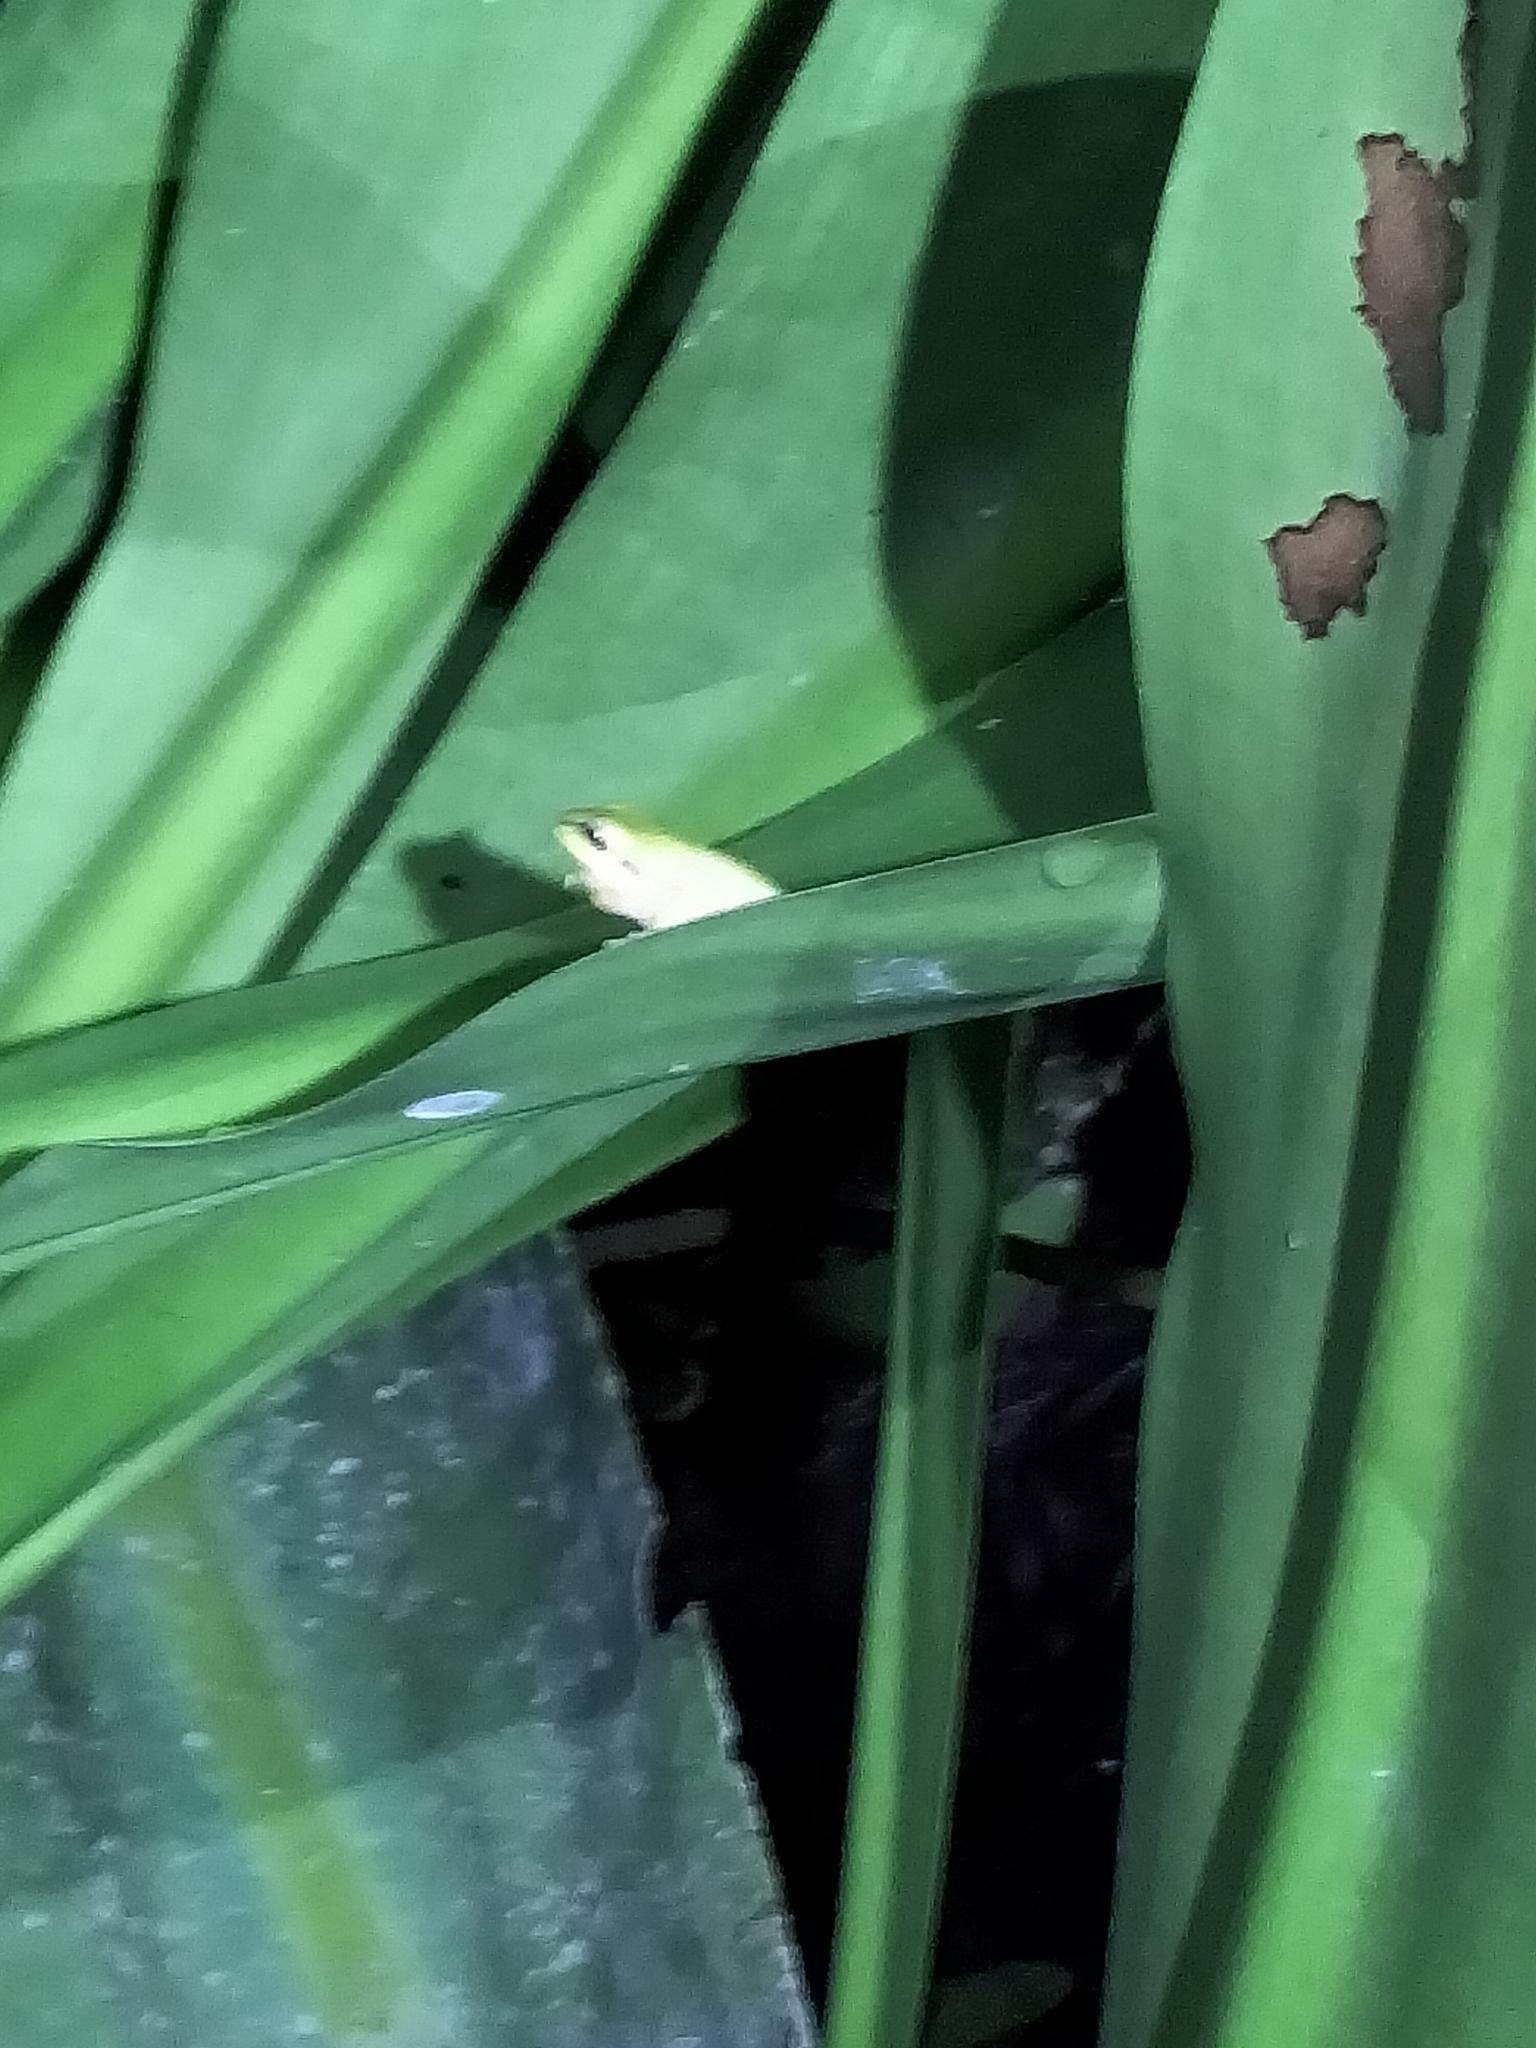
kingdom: Animalia
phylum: Chordata
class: Amphibia
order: Anura
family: Pelodryadidae
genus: Litoria
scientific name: Litoria fallax
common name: Eastern dwarf treefrog
